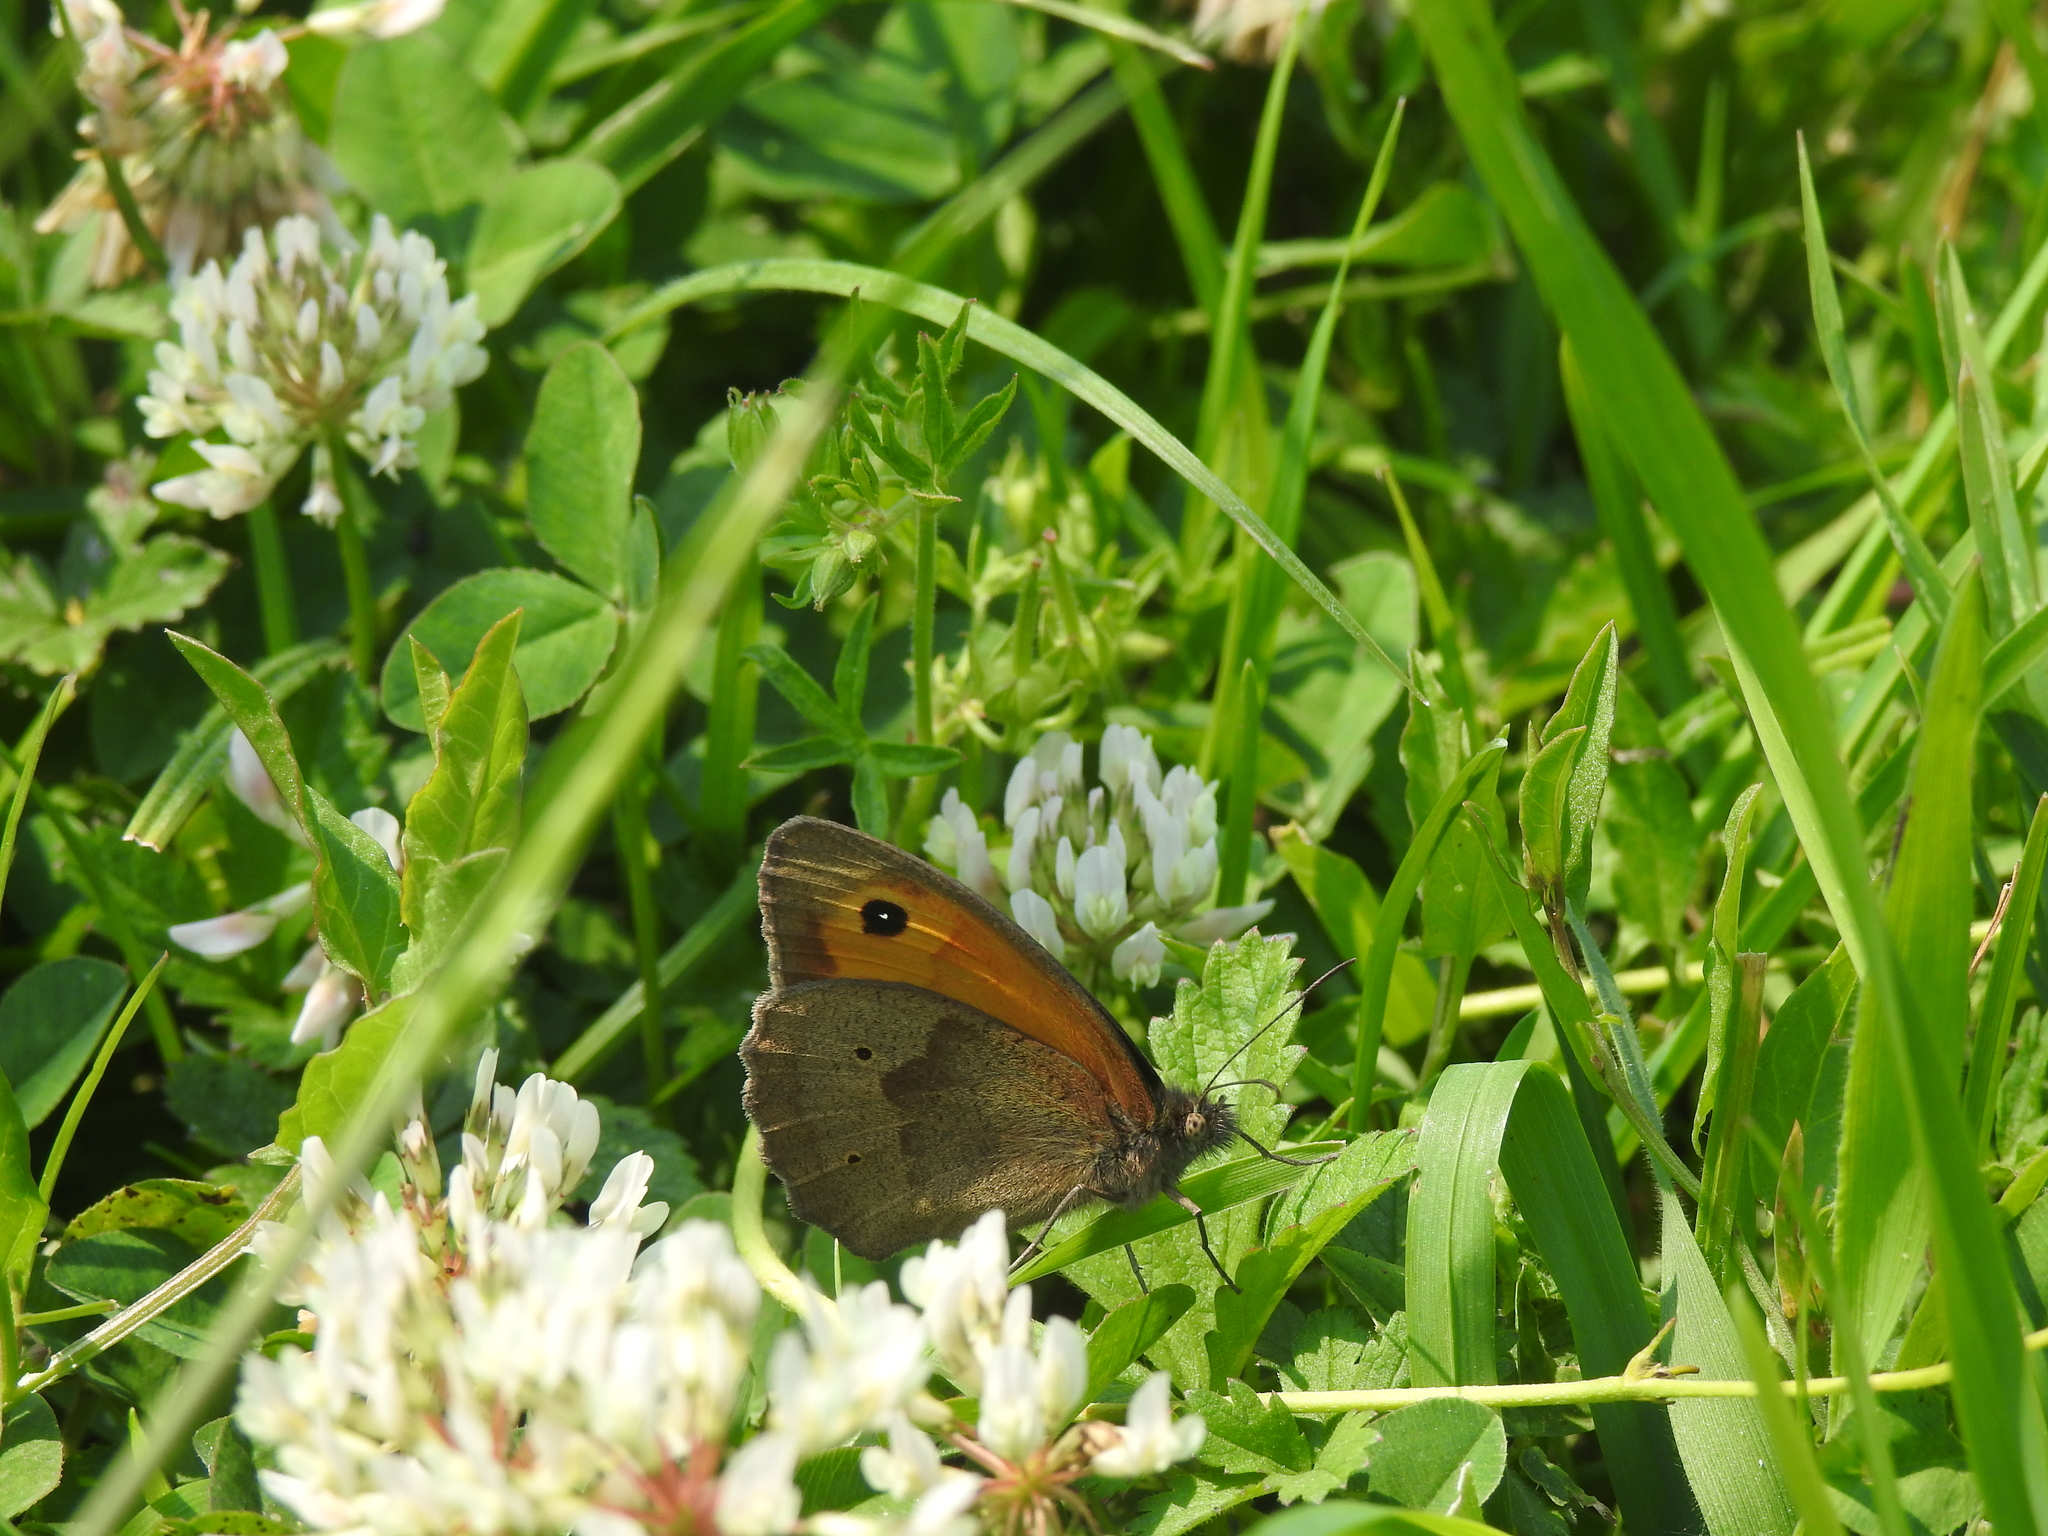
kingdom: Animalia
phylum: Arthropoda
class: Insecta
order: Lepidoptera
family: Nymphalidae
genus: Maniola
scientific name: Maniola jurtina
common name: Meadow brown
